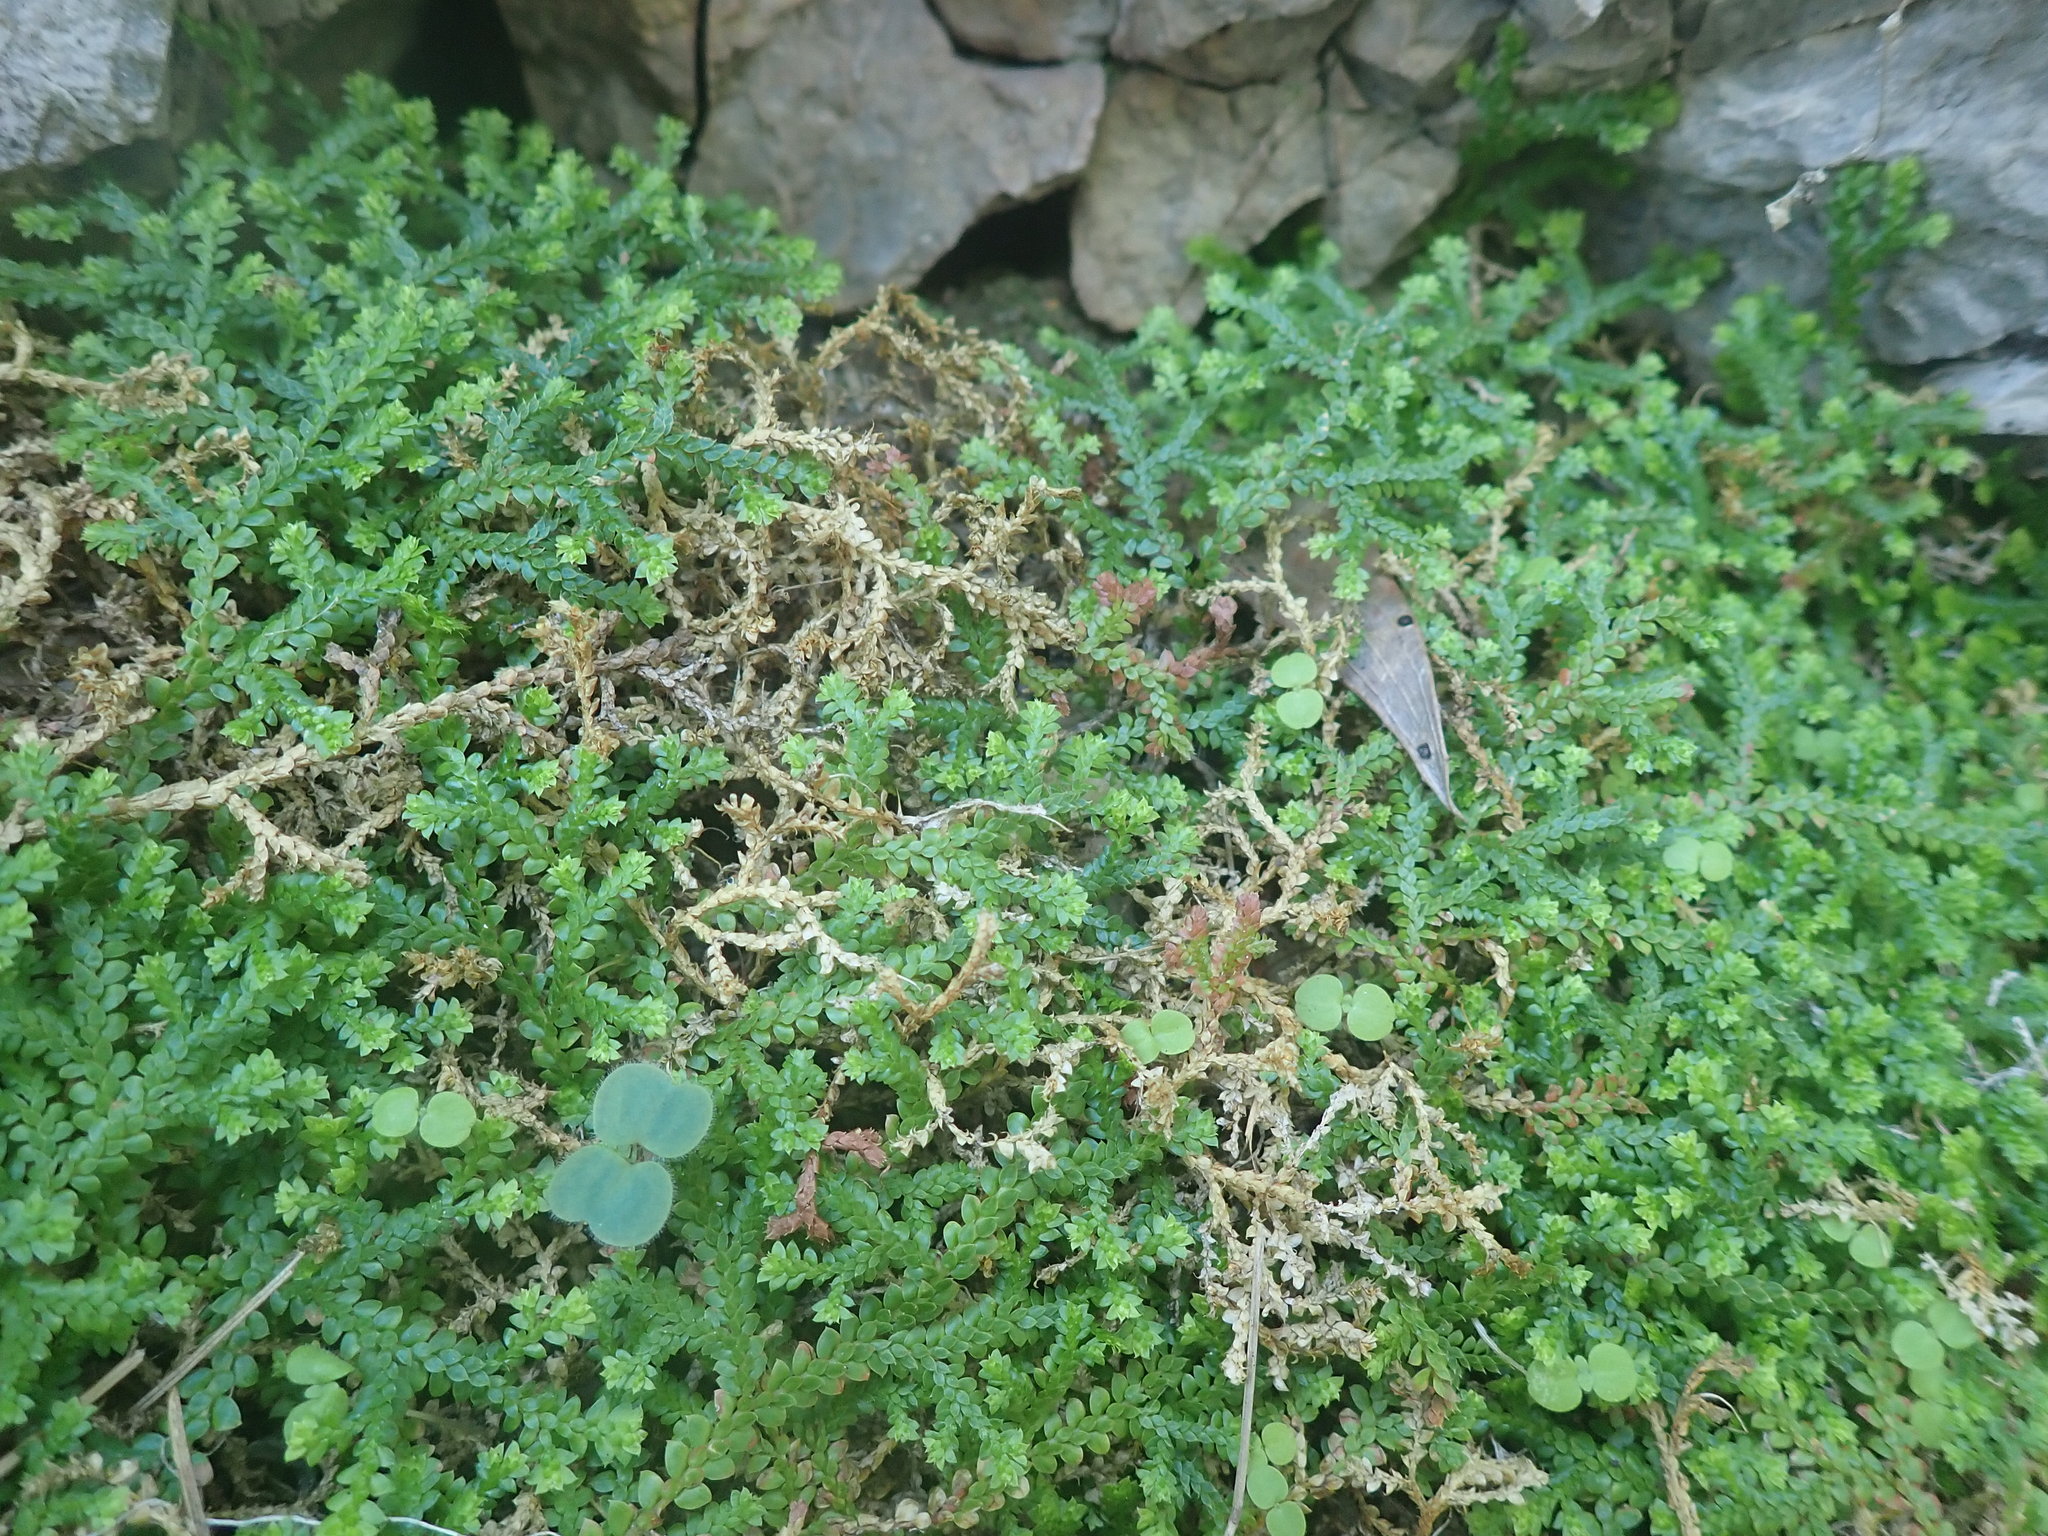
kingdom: Plantae
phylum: Tracheophyta
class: Lycopodiopsida
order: Selaginellales
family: Selaginellaceae
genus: Selaginella
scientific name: Selaginella denticulata
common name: Toothed-leaved clubmoss
